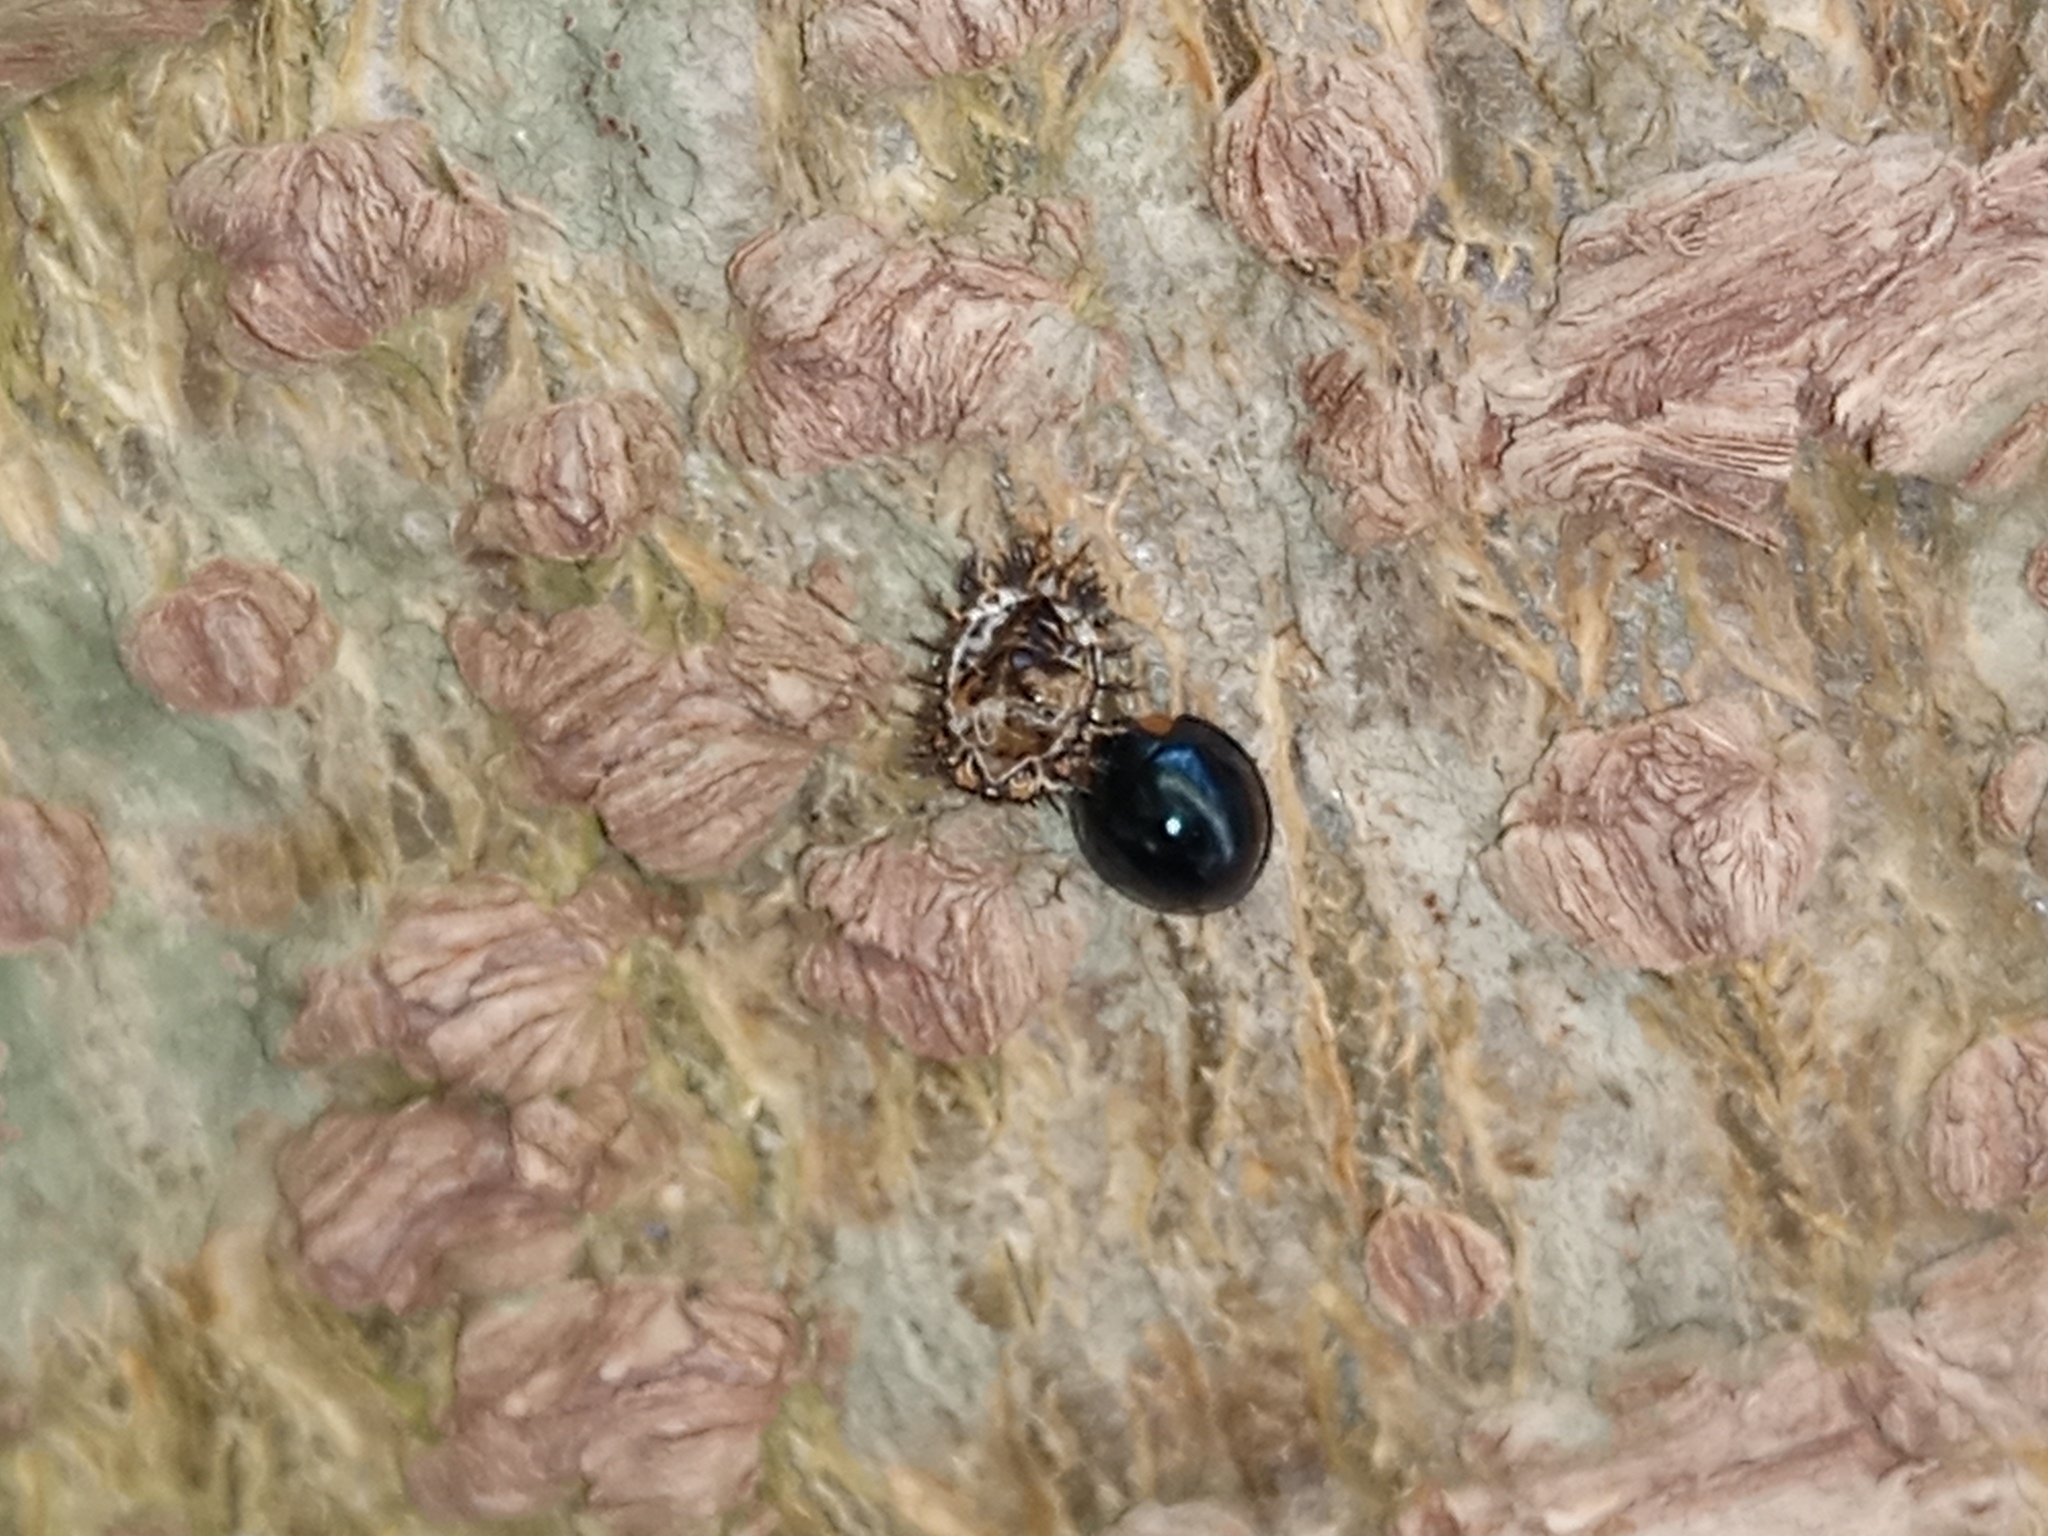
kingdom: Animalia
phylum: Arthropoda
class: Insecta
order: Coleoptera
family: Coccinellidae
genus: Curinus
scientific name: Curinus coeruleus
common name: Ladybird beetle
